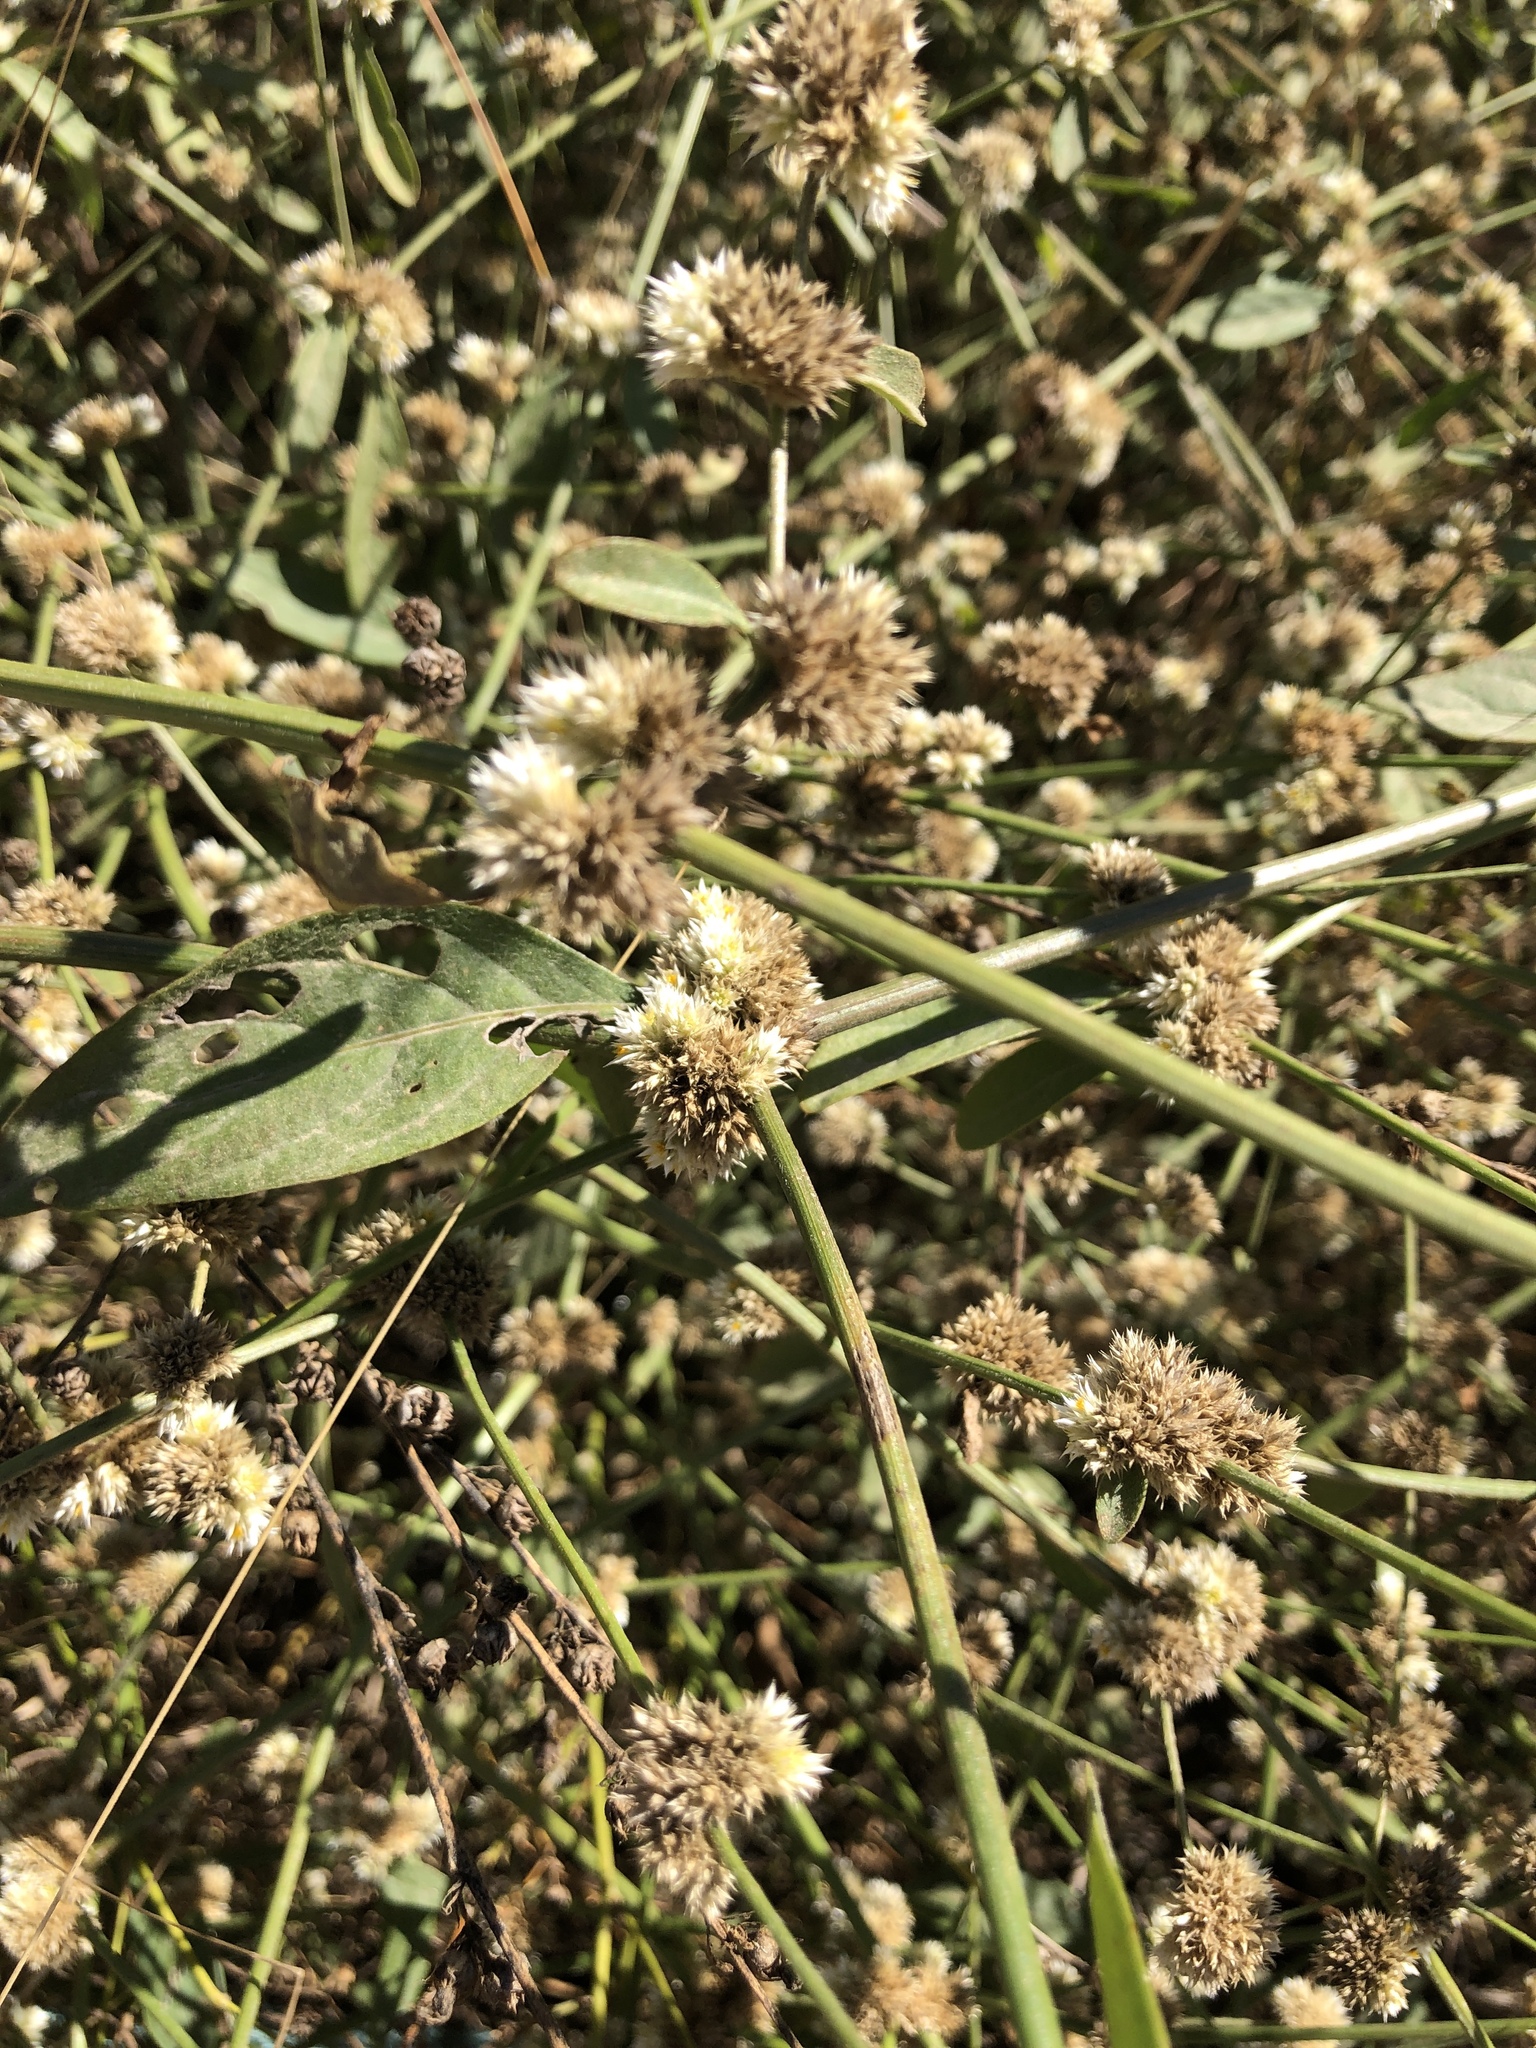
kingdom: Plantae
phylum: Tracheophyta
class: Magnoliopsida
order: Caryophyllales
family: Amaranthaceae
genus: Alternanthera
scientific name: Alternanthera ficoidea
